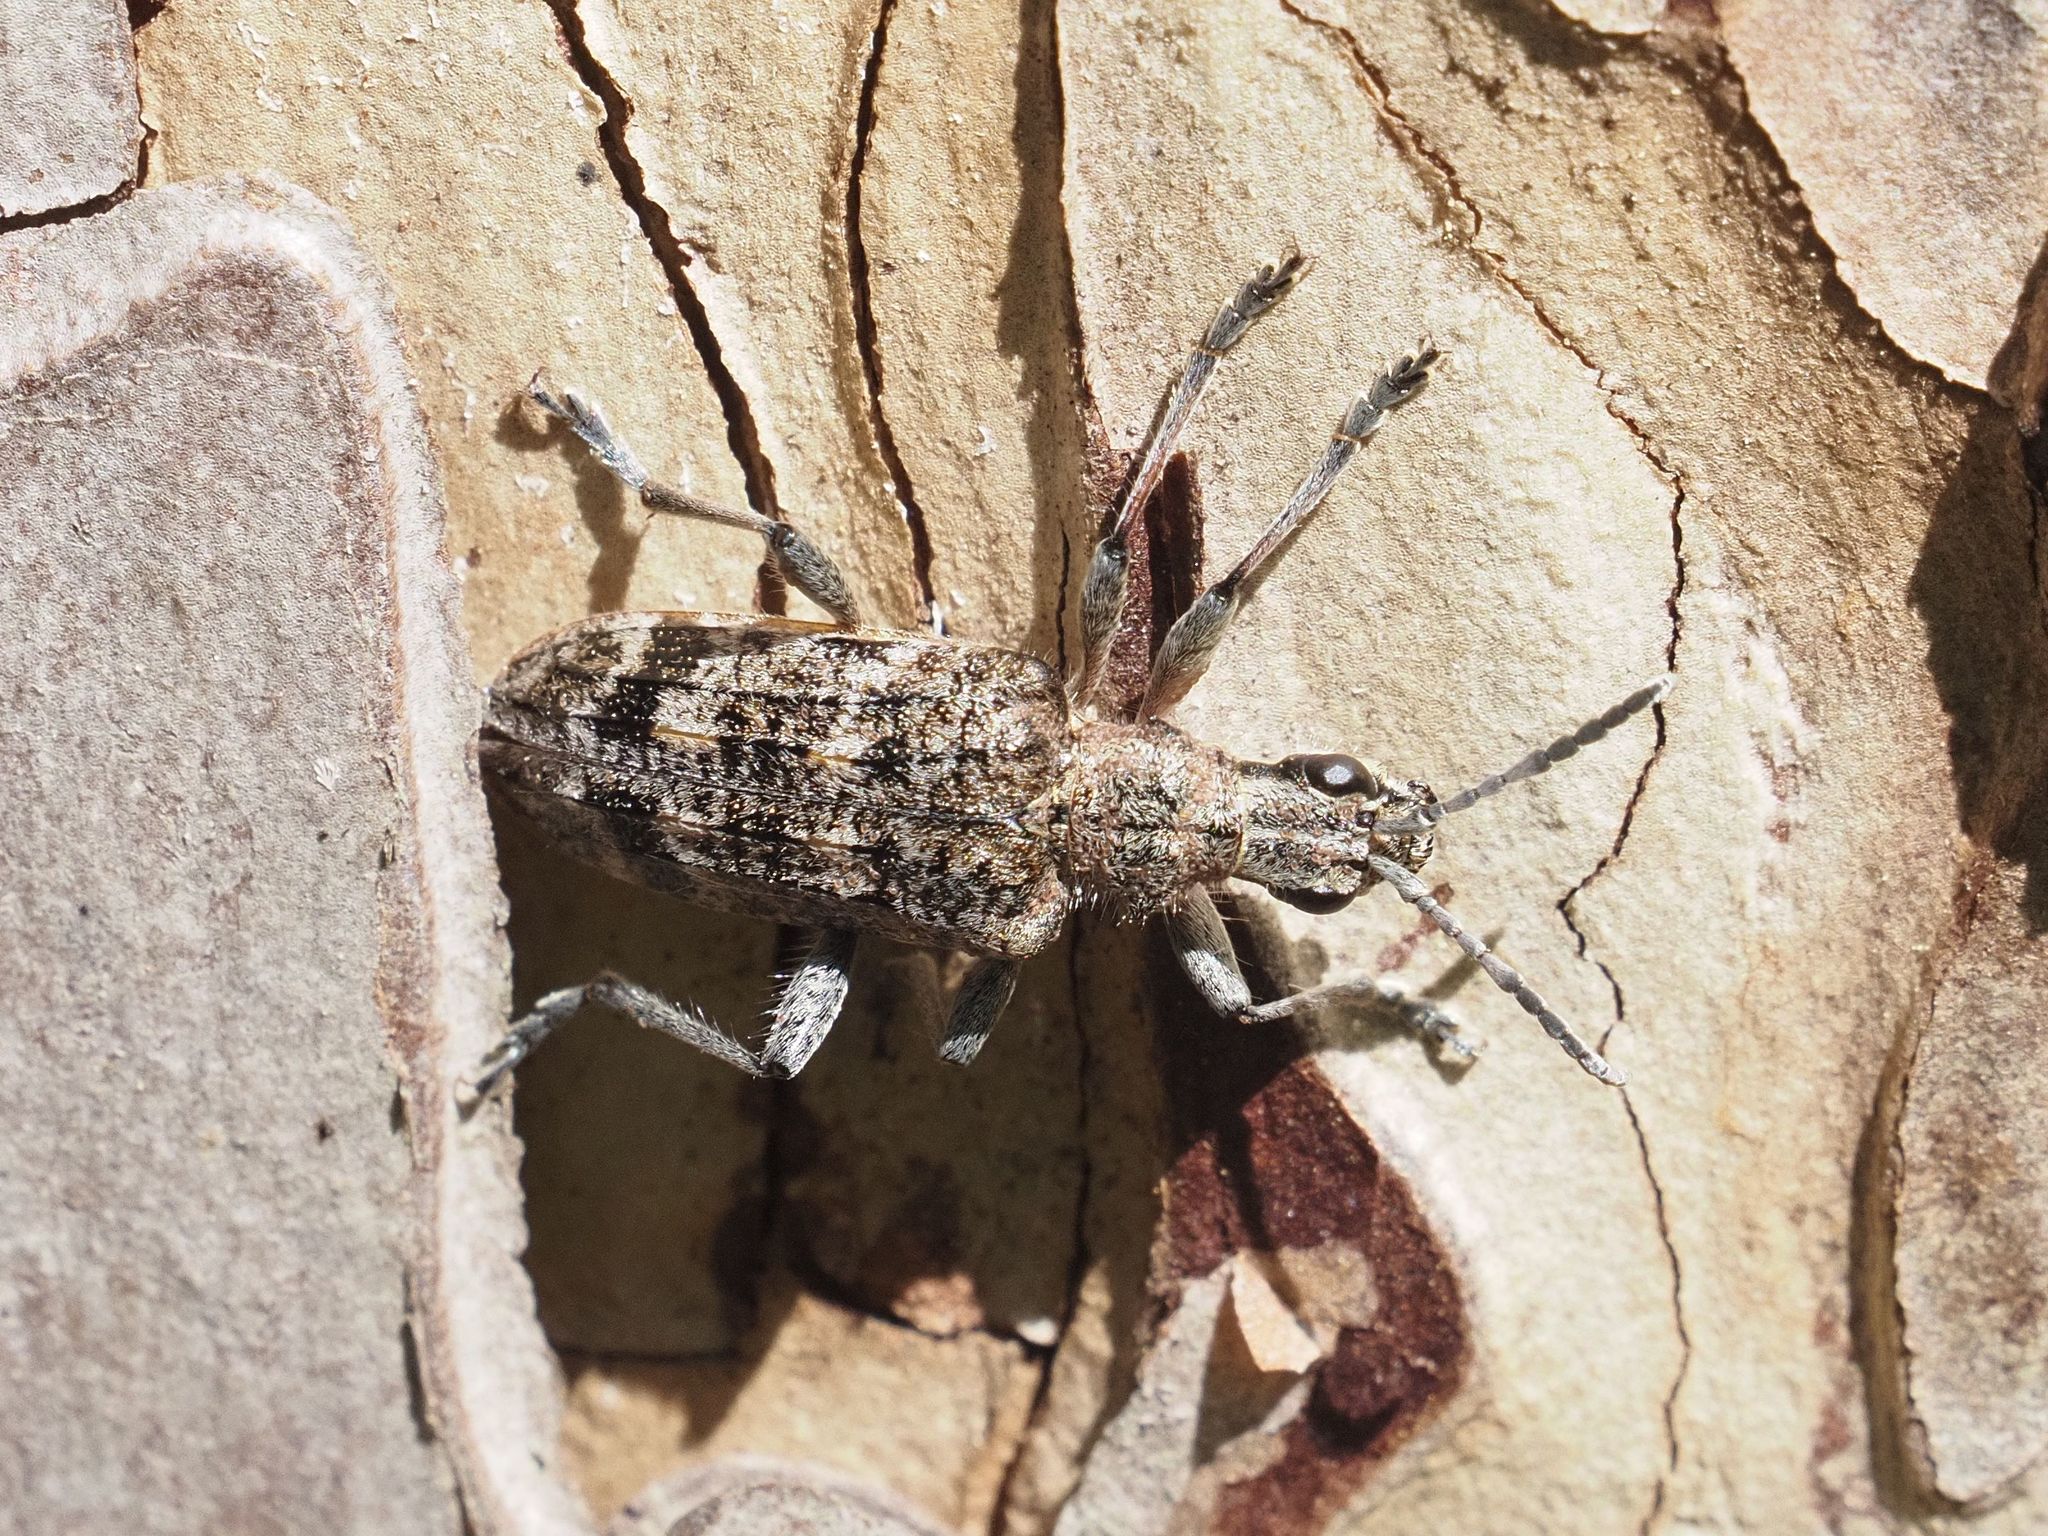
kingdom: Animalia
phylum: Arthropoda
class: Insecta
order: Coleoptera
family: Cerambycidae
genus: Rhagium
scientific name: Rhagium inquisitor
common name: Ribbed pine borer
